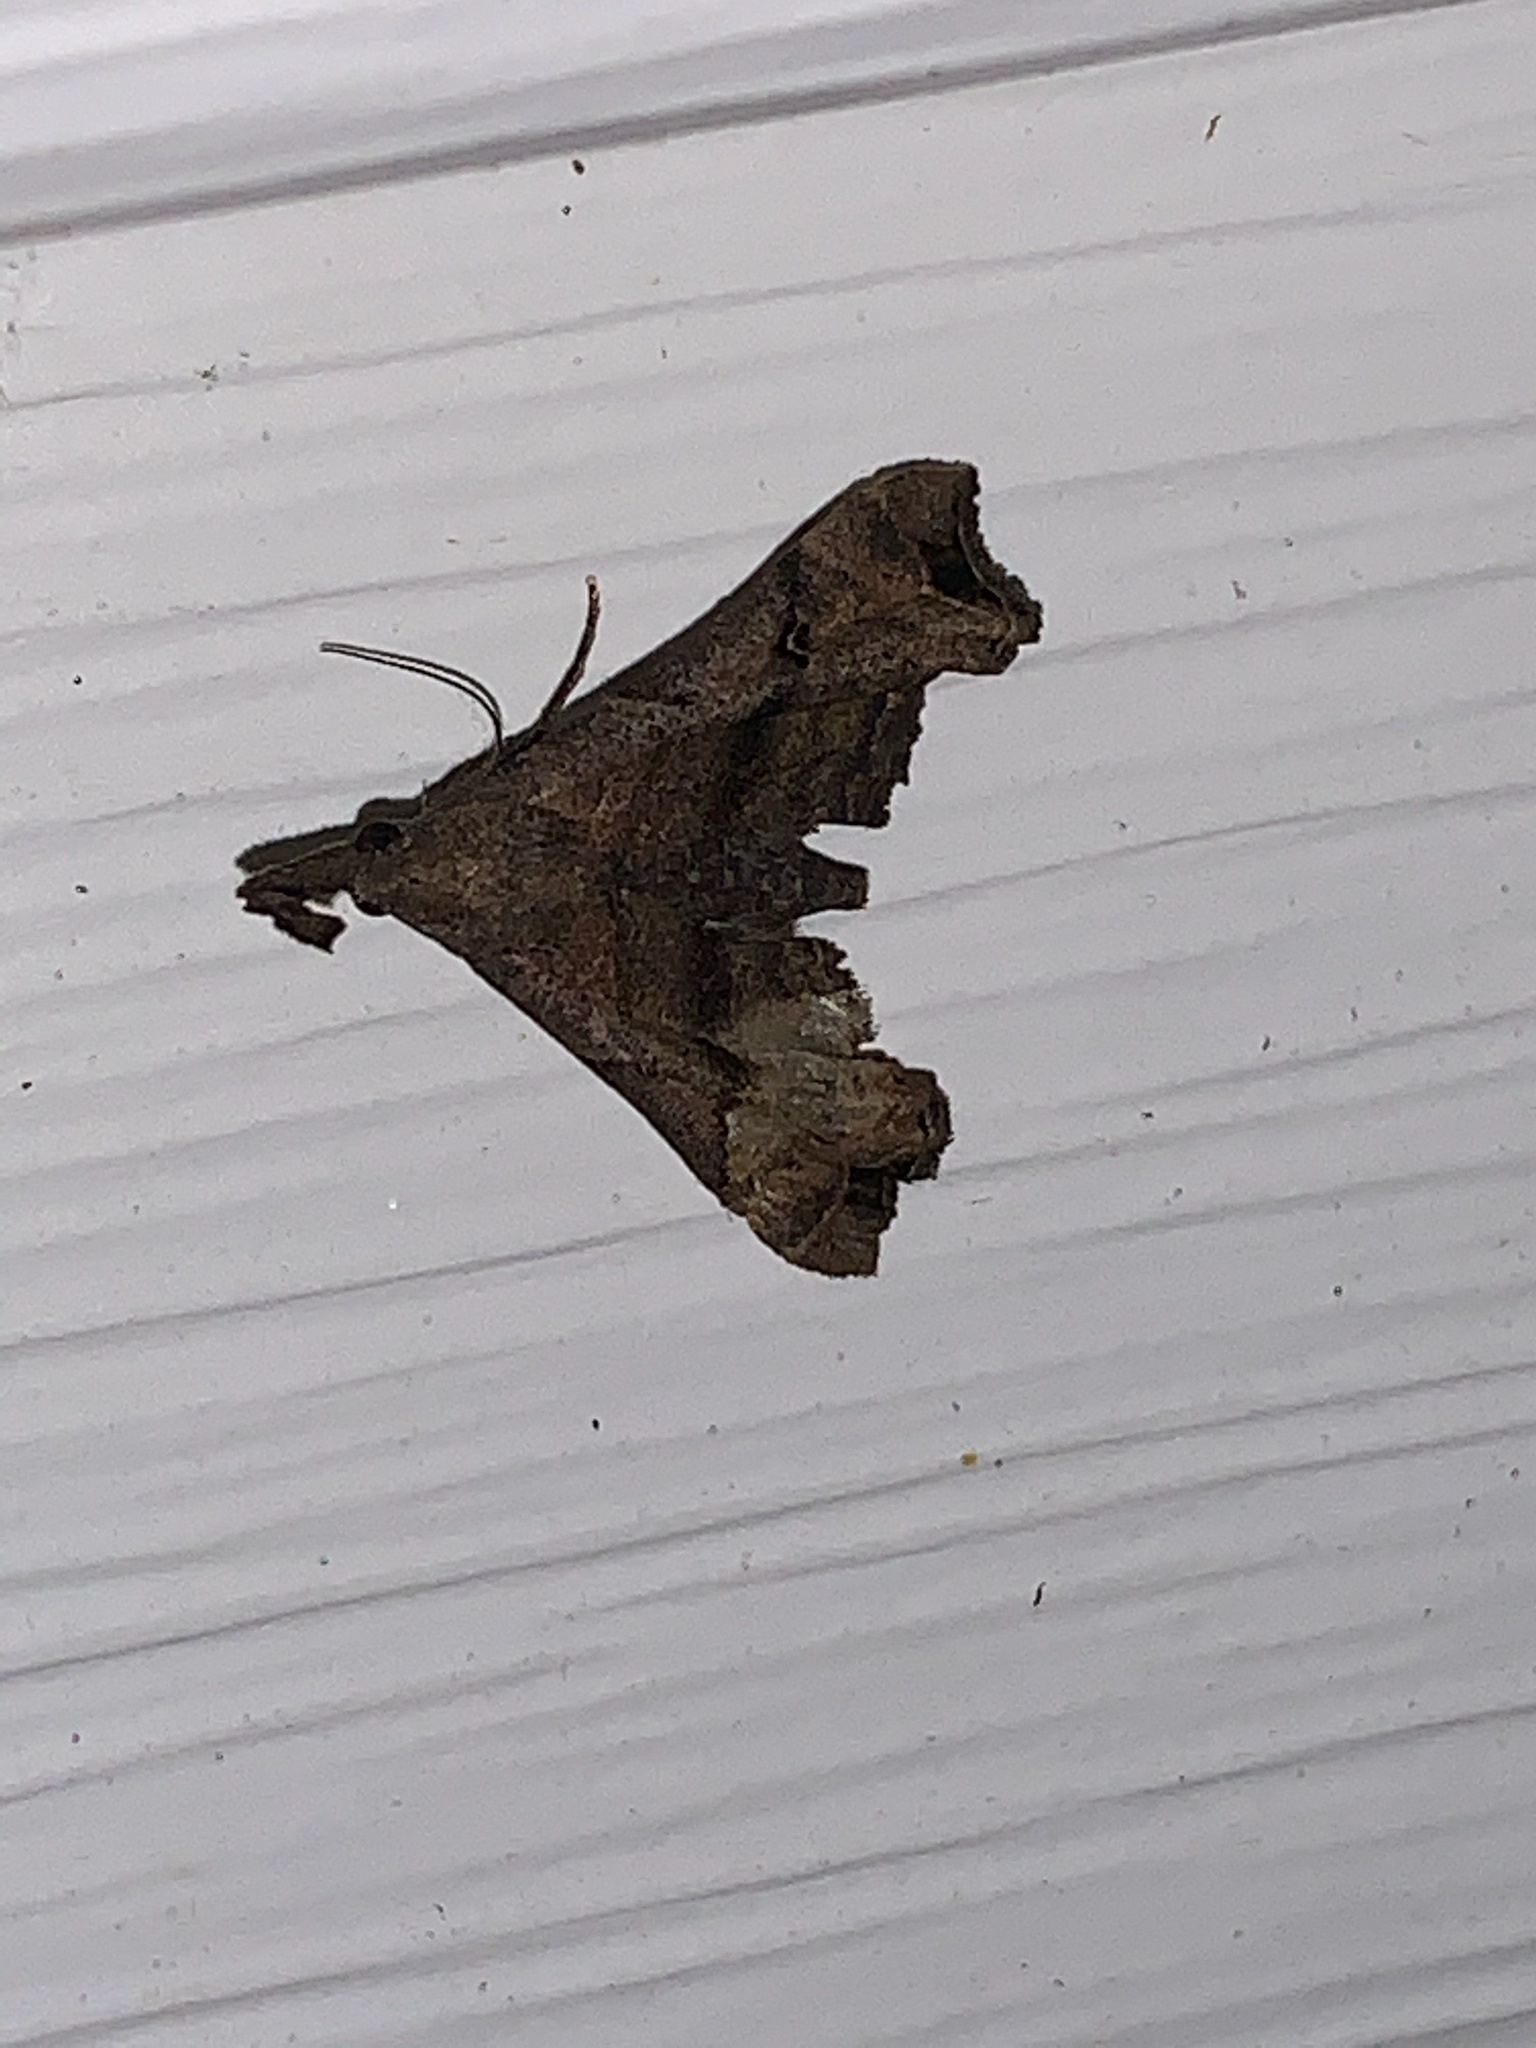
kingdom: Animalia
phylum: Arthropoda
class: Insecta
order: Lepidoptera
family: Erebidae
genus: Palthis
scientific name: Palthis asopialis
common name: Faint-spotted palthis moth
